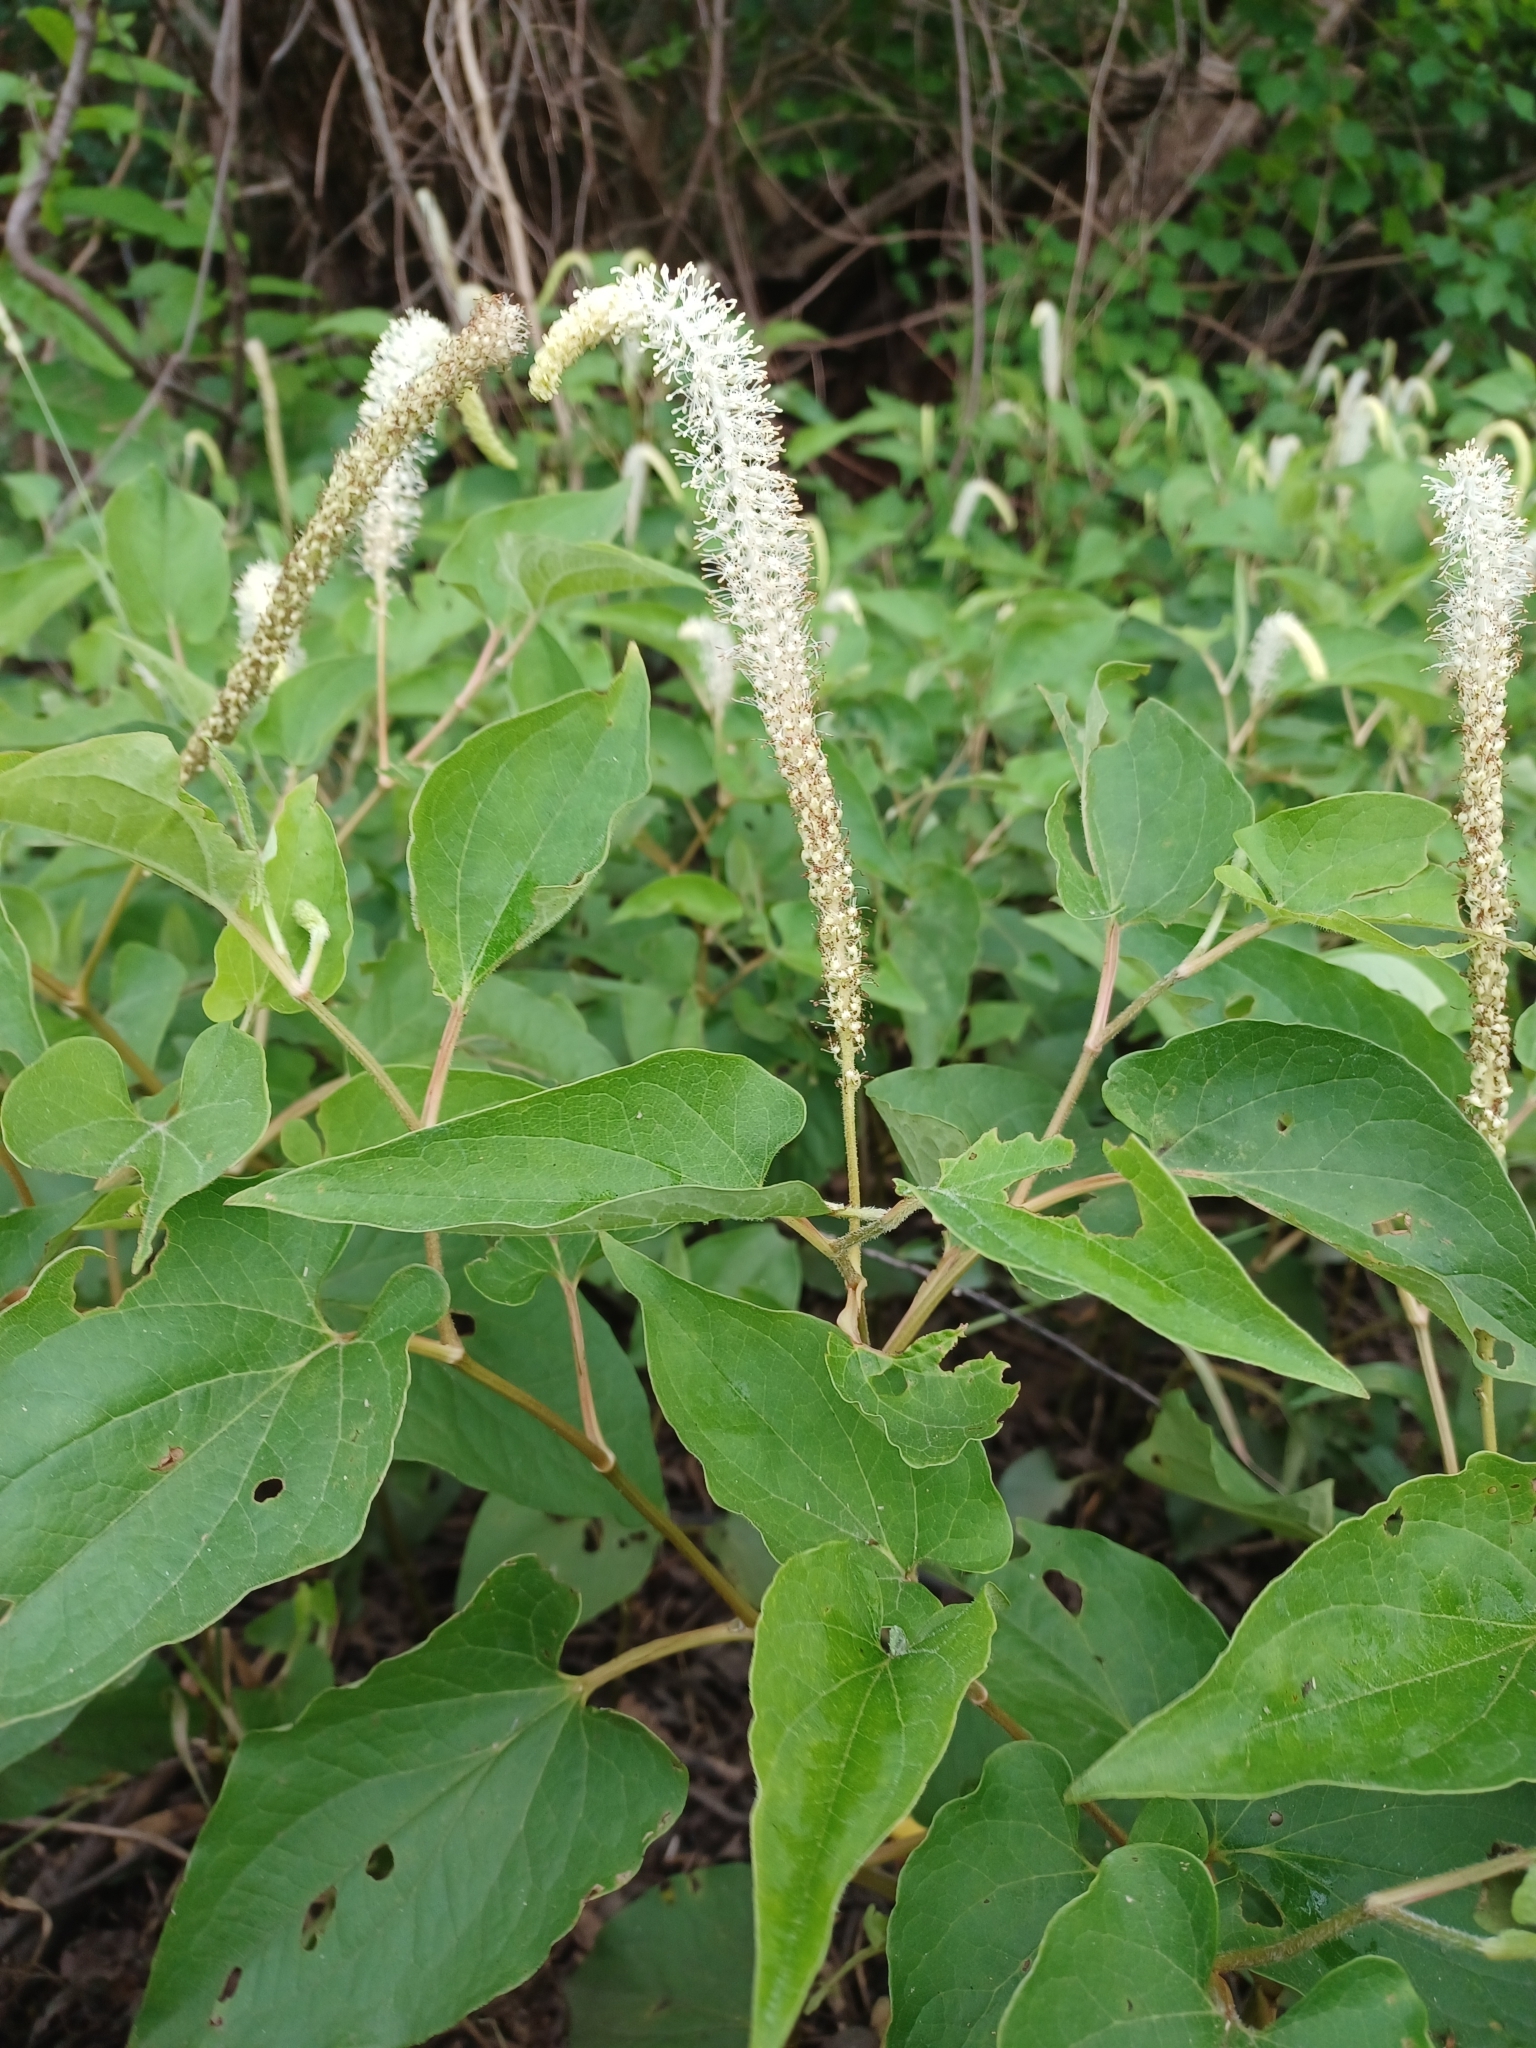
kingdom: Plantae
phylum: Tracheophyta
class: Magnoliopsida
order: Piperales
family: Saururaceae
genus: Saururus
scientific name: Saururus cernuus
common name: Lizard's-tail
